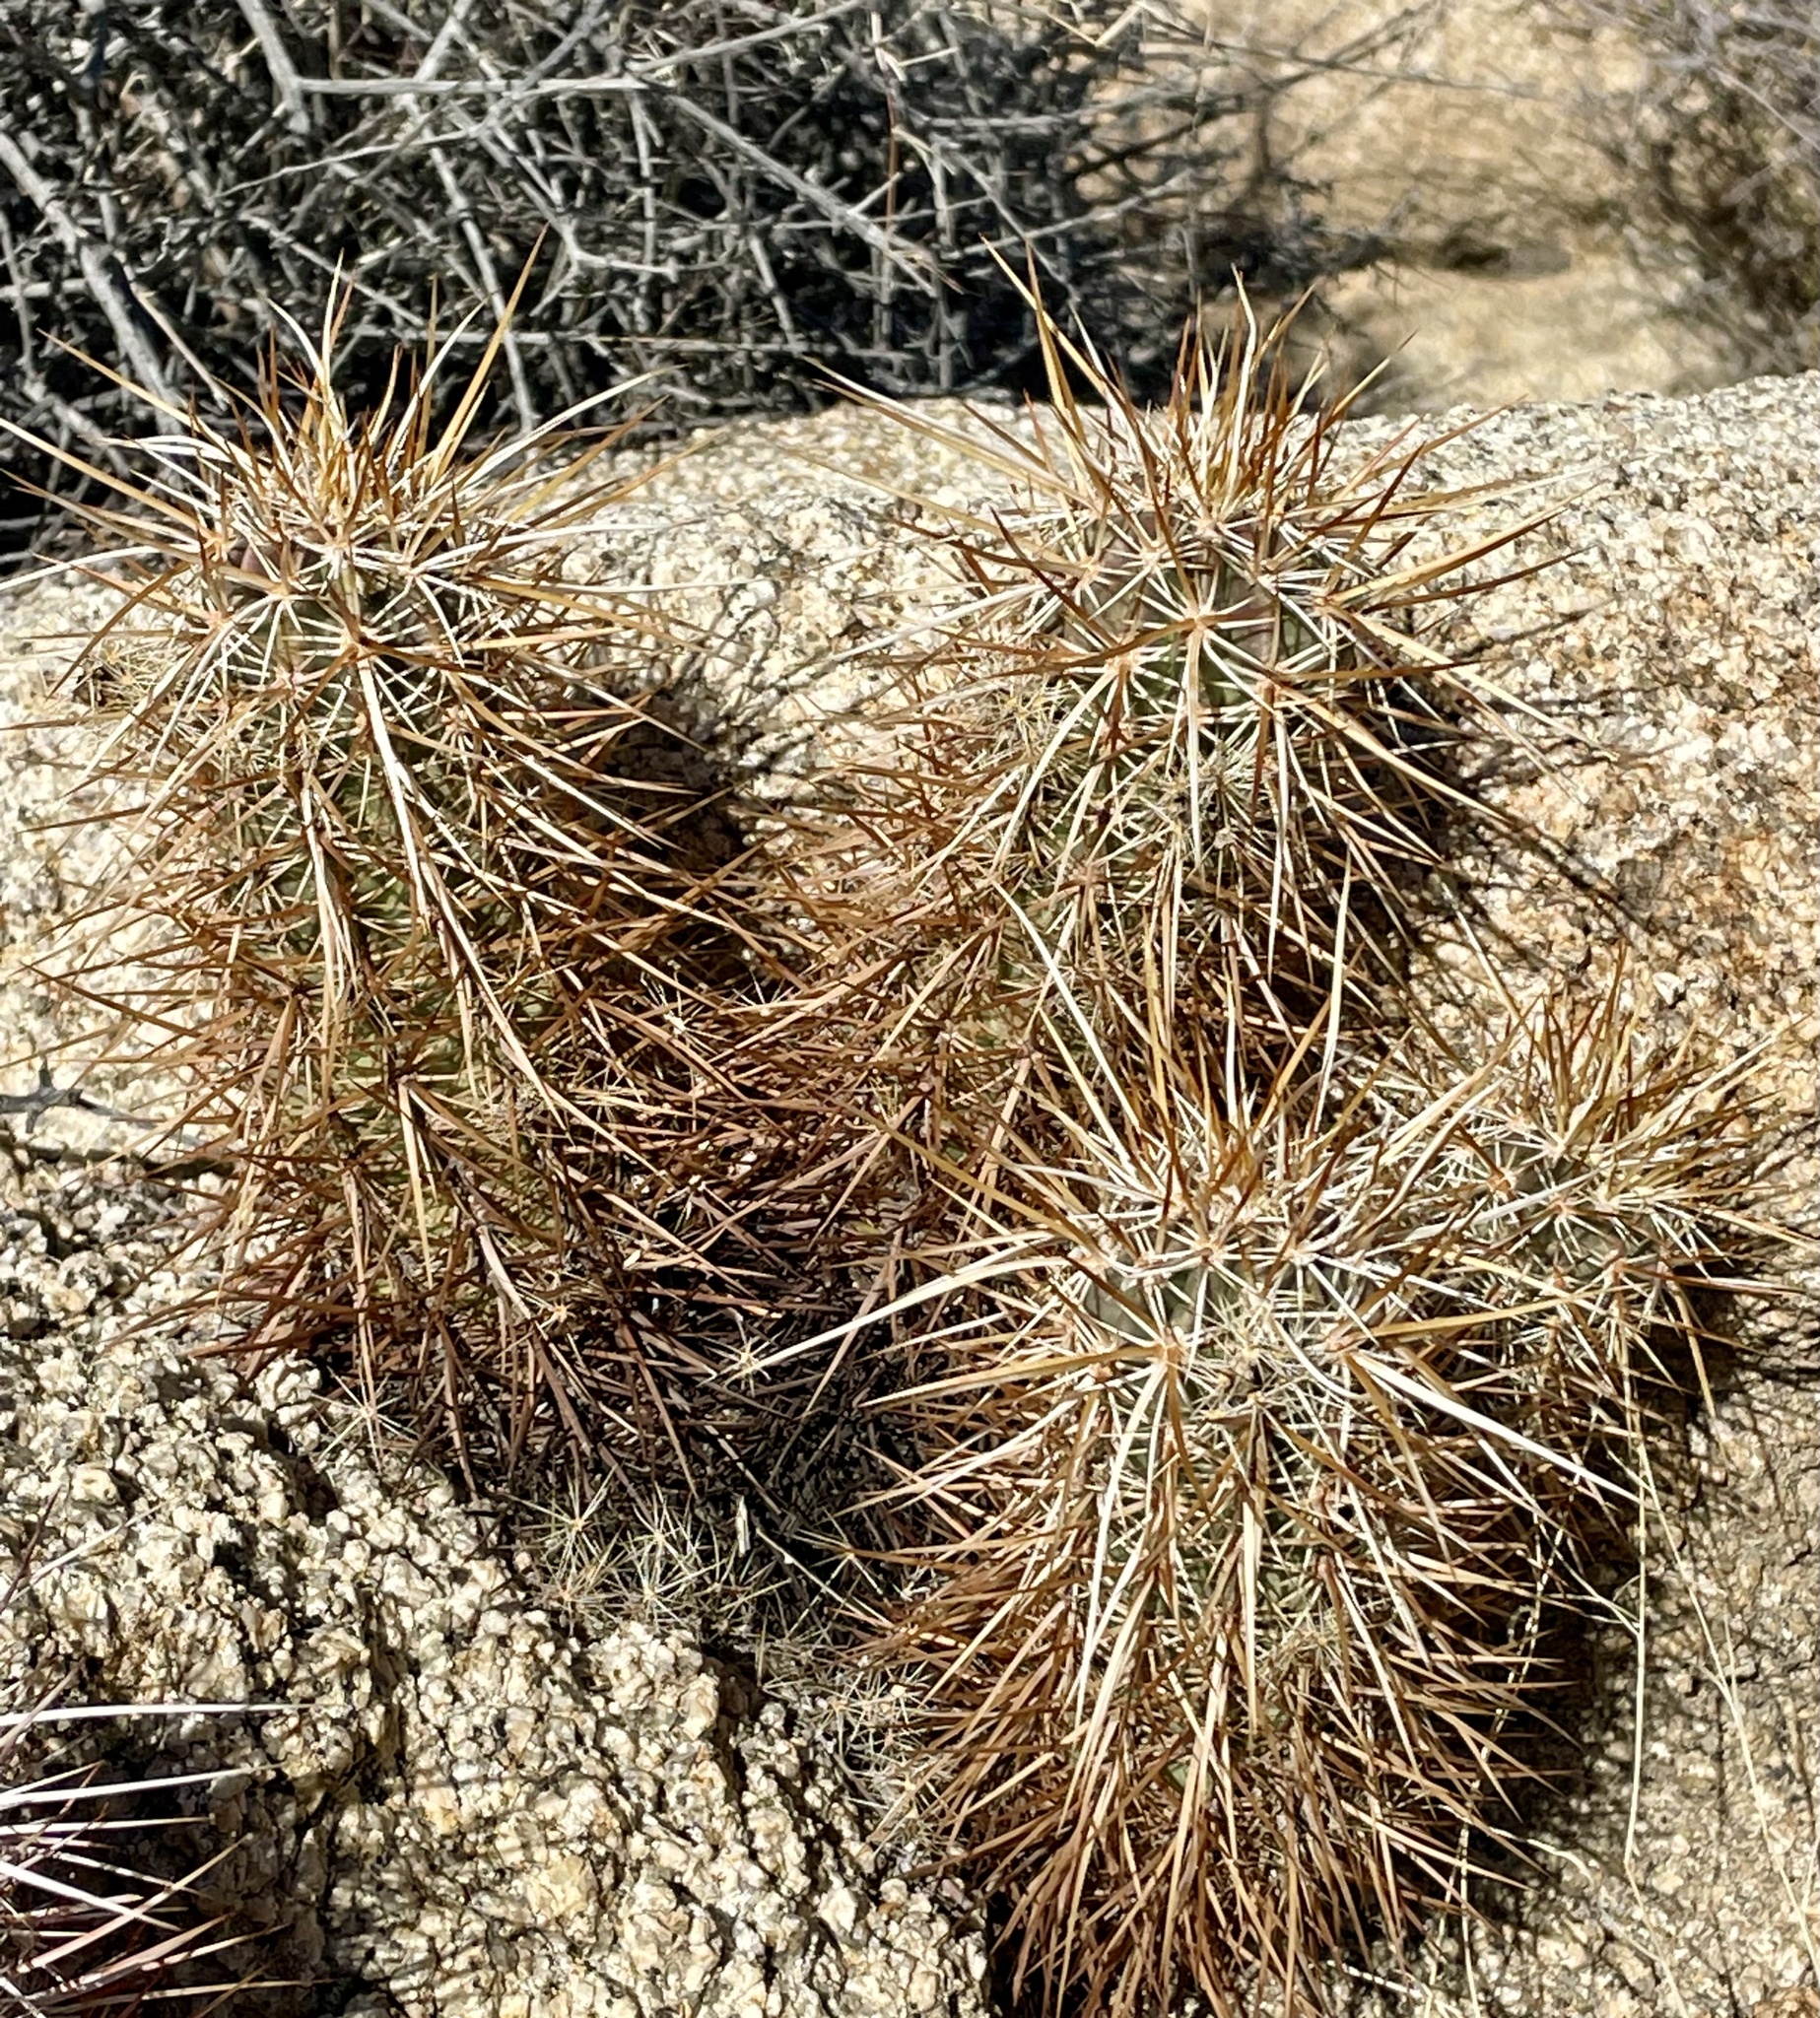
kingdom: Plantae
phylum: Tracheophyta
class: Magnoliopsida
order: Caryophyllales
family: Cactaceae
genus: Echinocereus
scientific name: Echinocereus engelmannii
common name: Engelmann's hedgehog cactus
